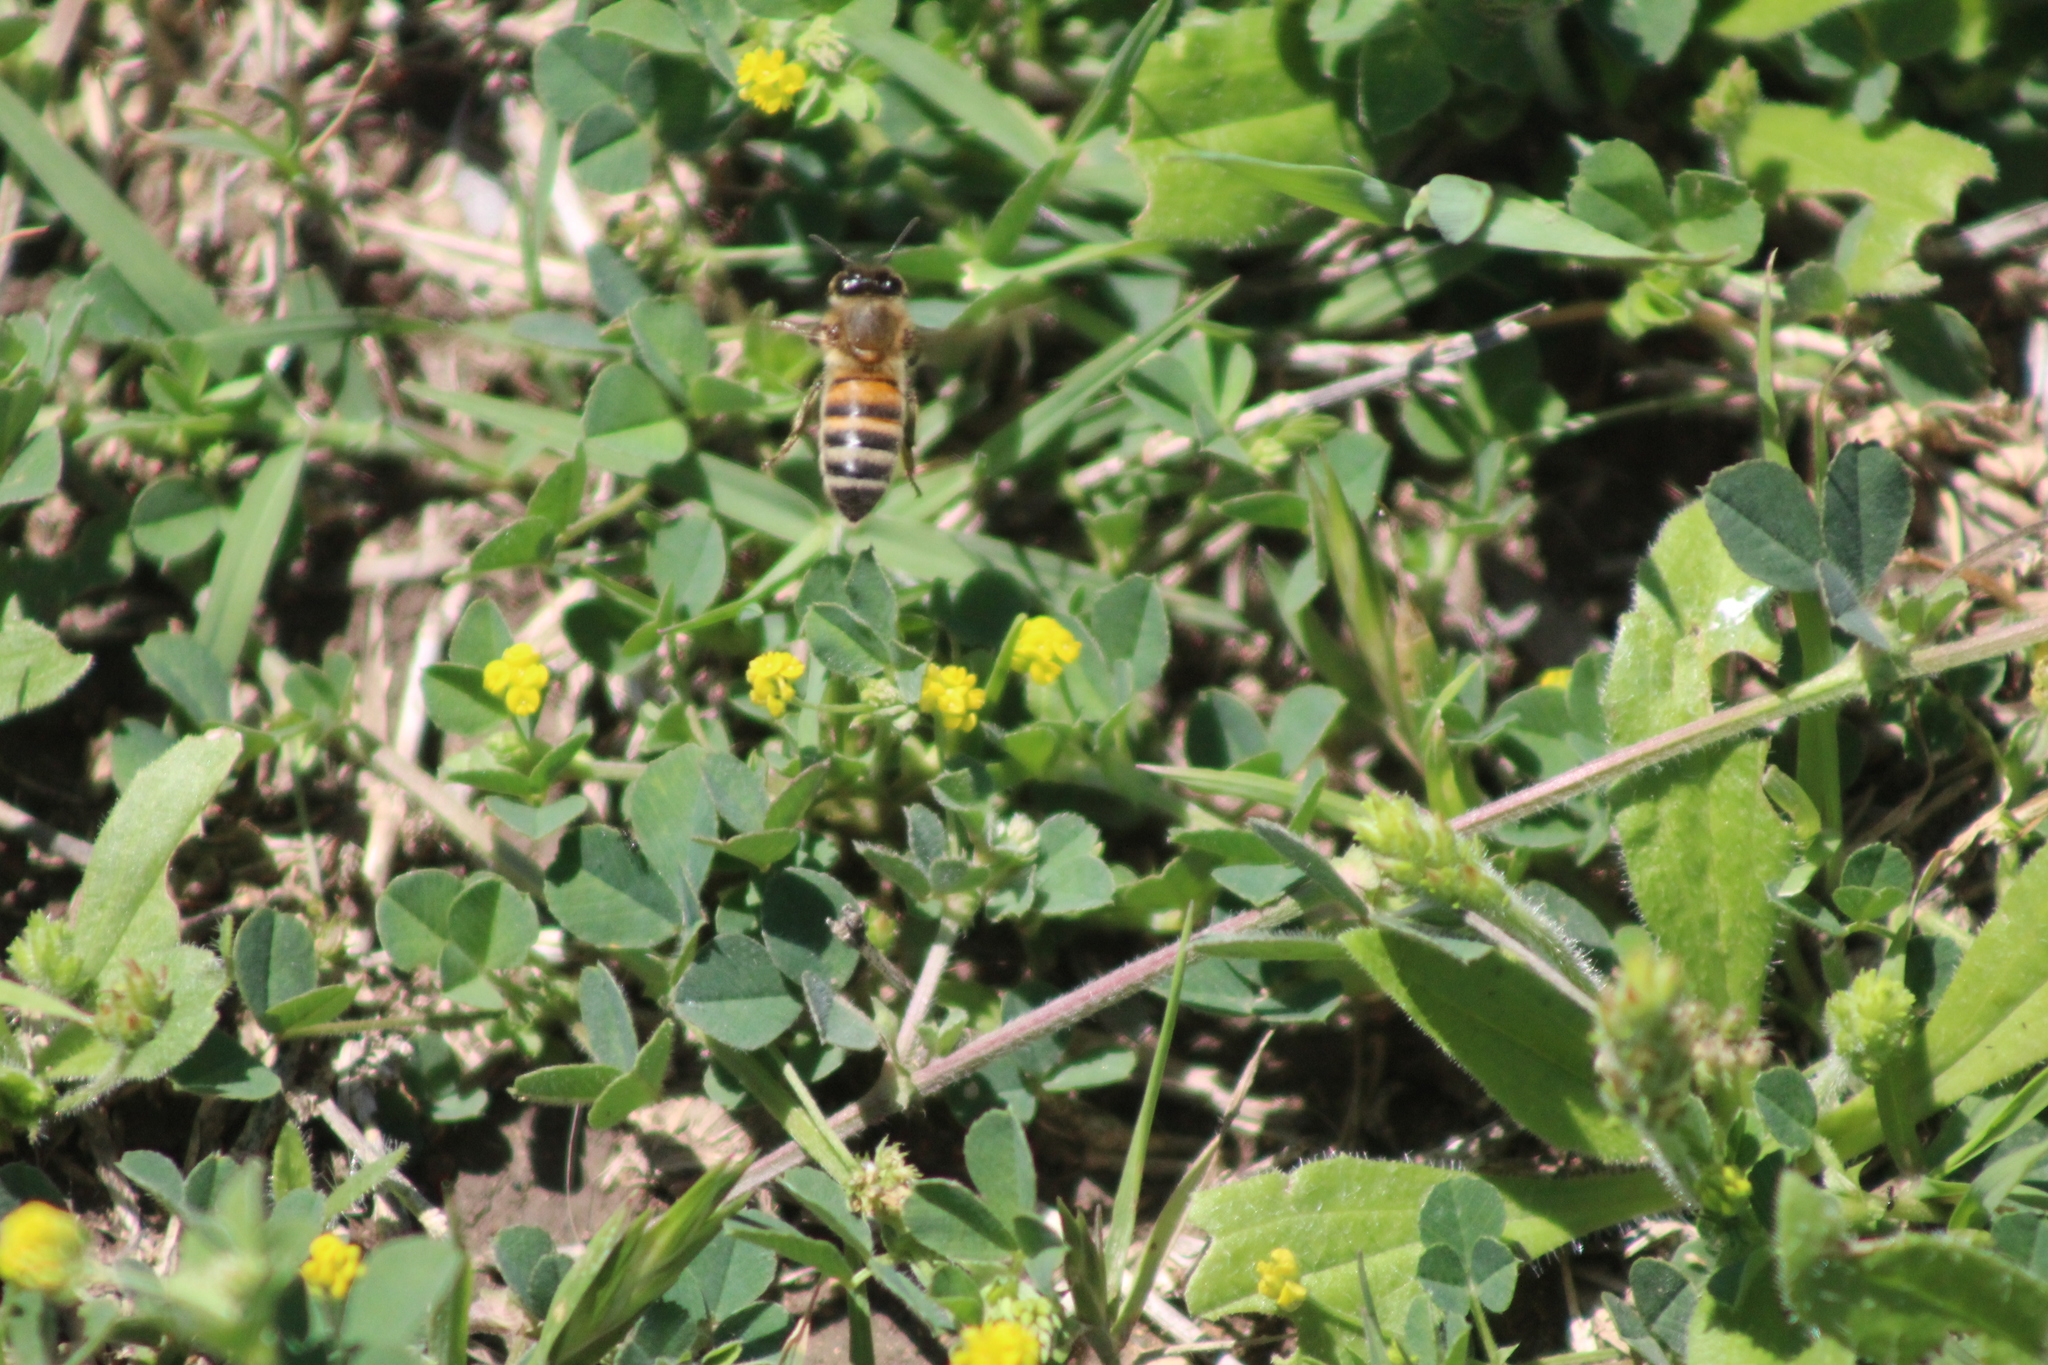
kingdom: Animalia
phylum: Arthropoda
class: Insecta
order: Hymenoptera
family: Apidae
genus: Apis
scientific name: Apis mellifera
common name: Honey bee
